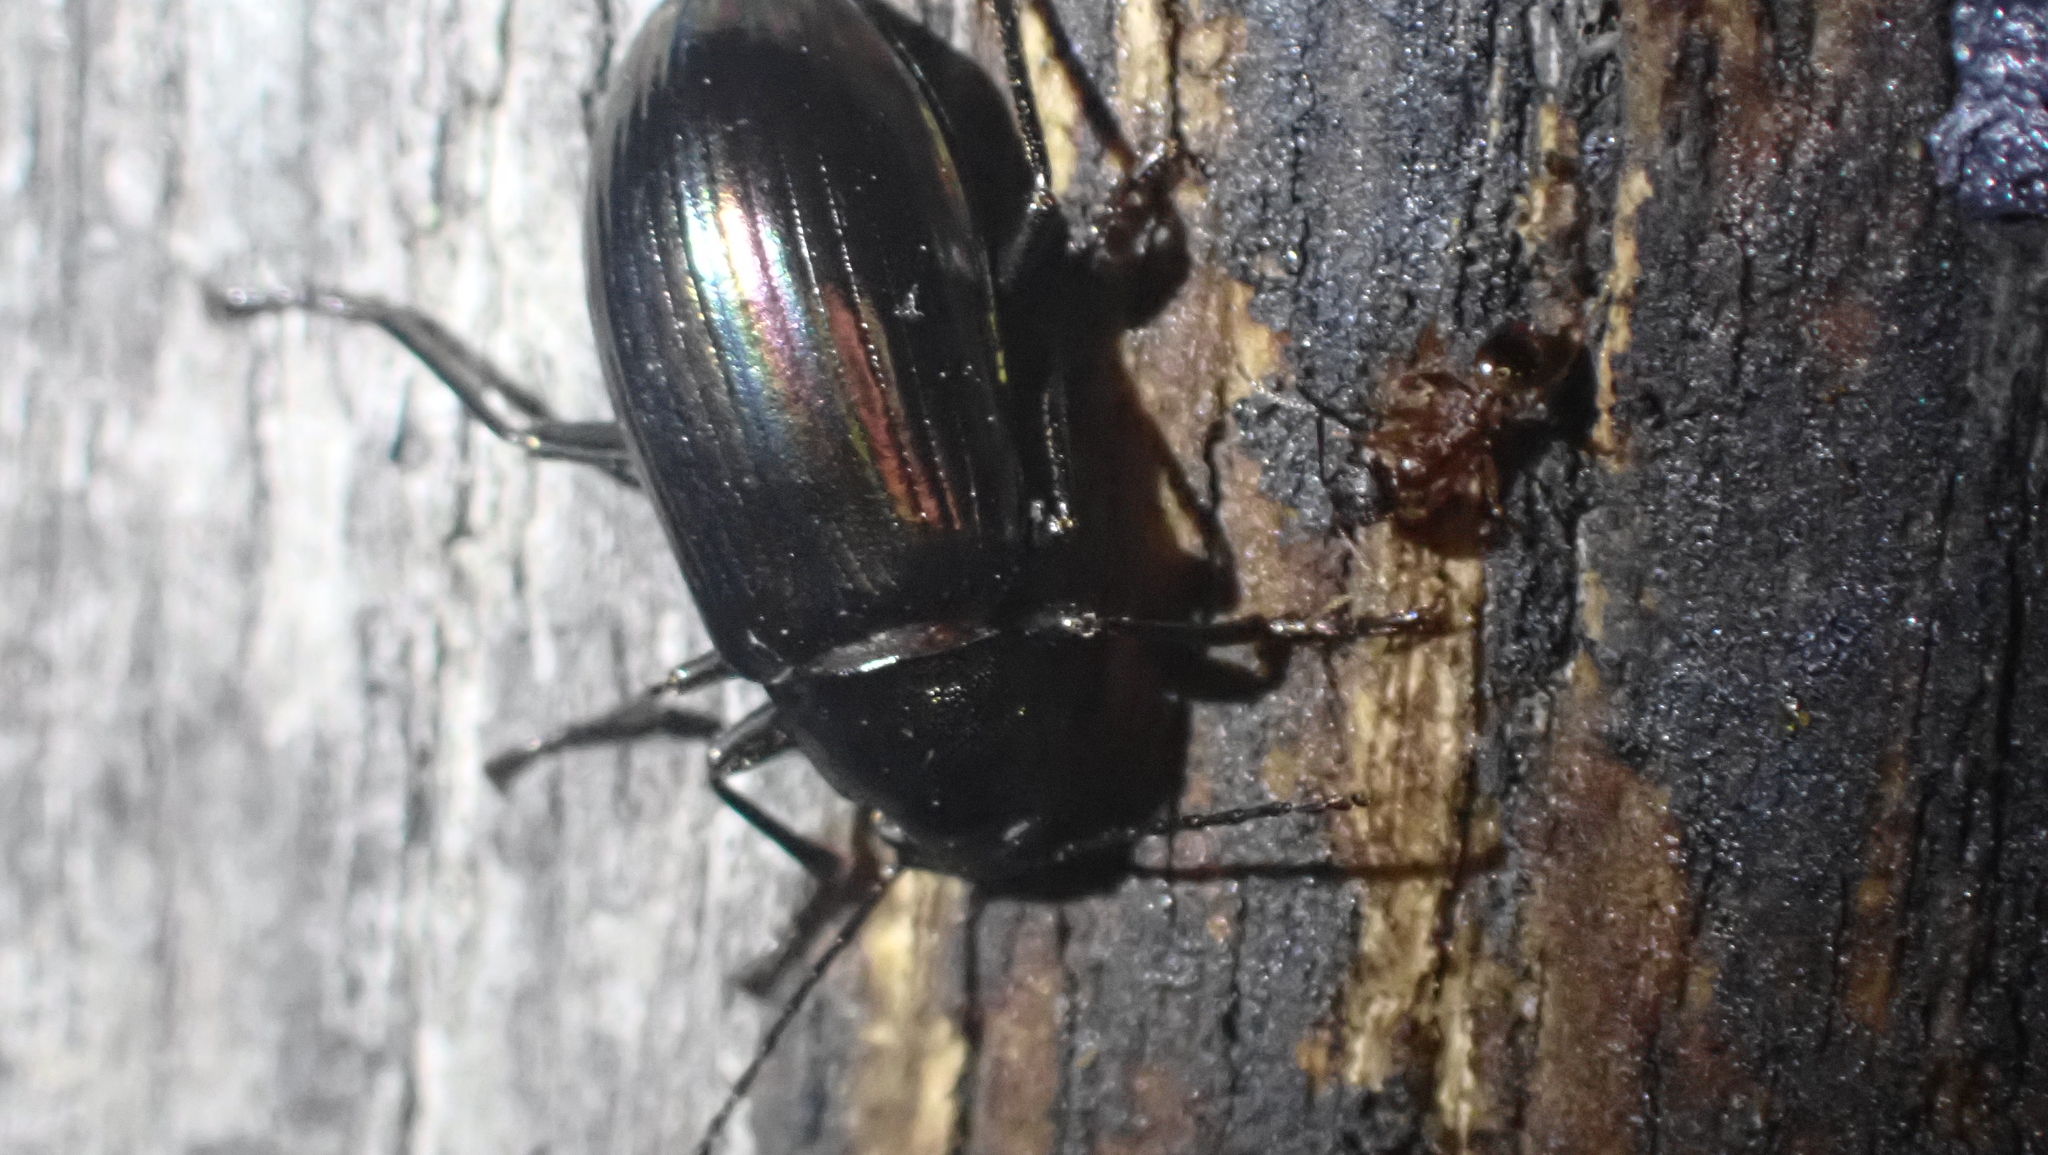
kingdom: Animalia
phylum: Arthropoda
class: Insecta
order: Coleoptera
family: Tenebrionidae
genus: Tarpela
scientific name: Tarpela micans
